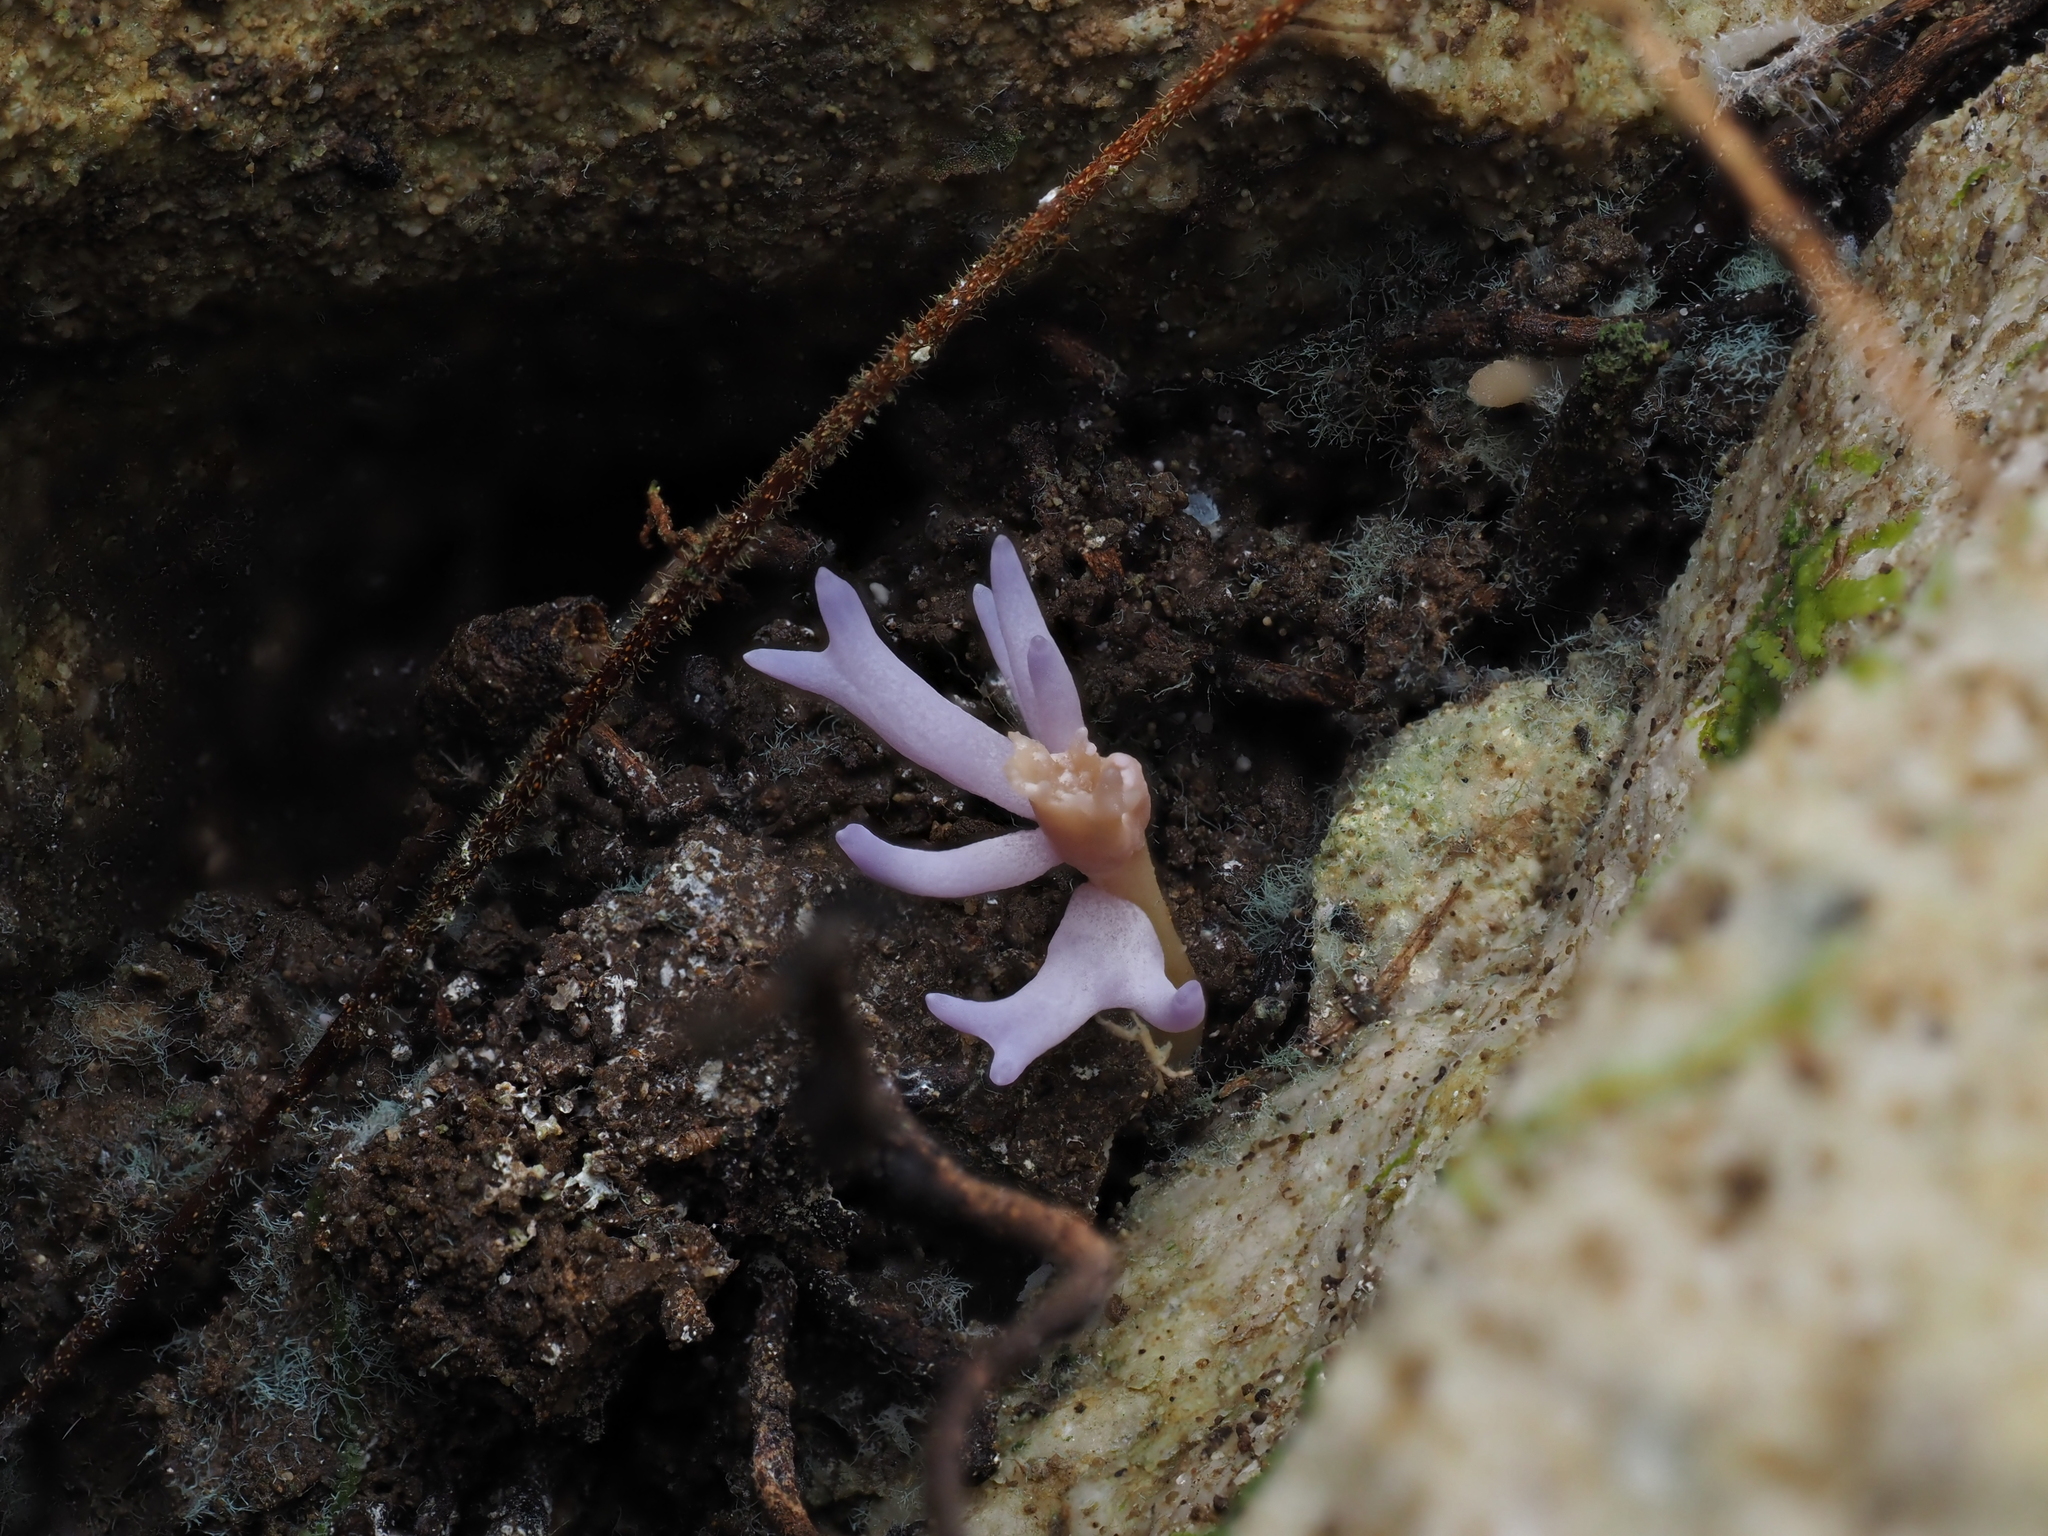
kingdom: Fungi
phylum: Basidiomycota
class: Agaricomycetes
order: Agaricales
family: Clavariaceae
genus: Ramariopsis
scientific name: Ramariopsis pulchella
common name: Lilac coral
